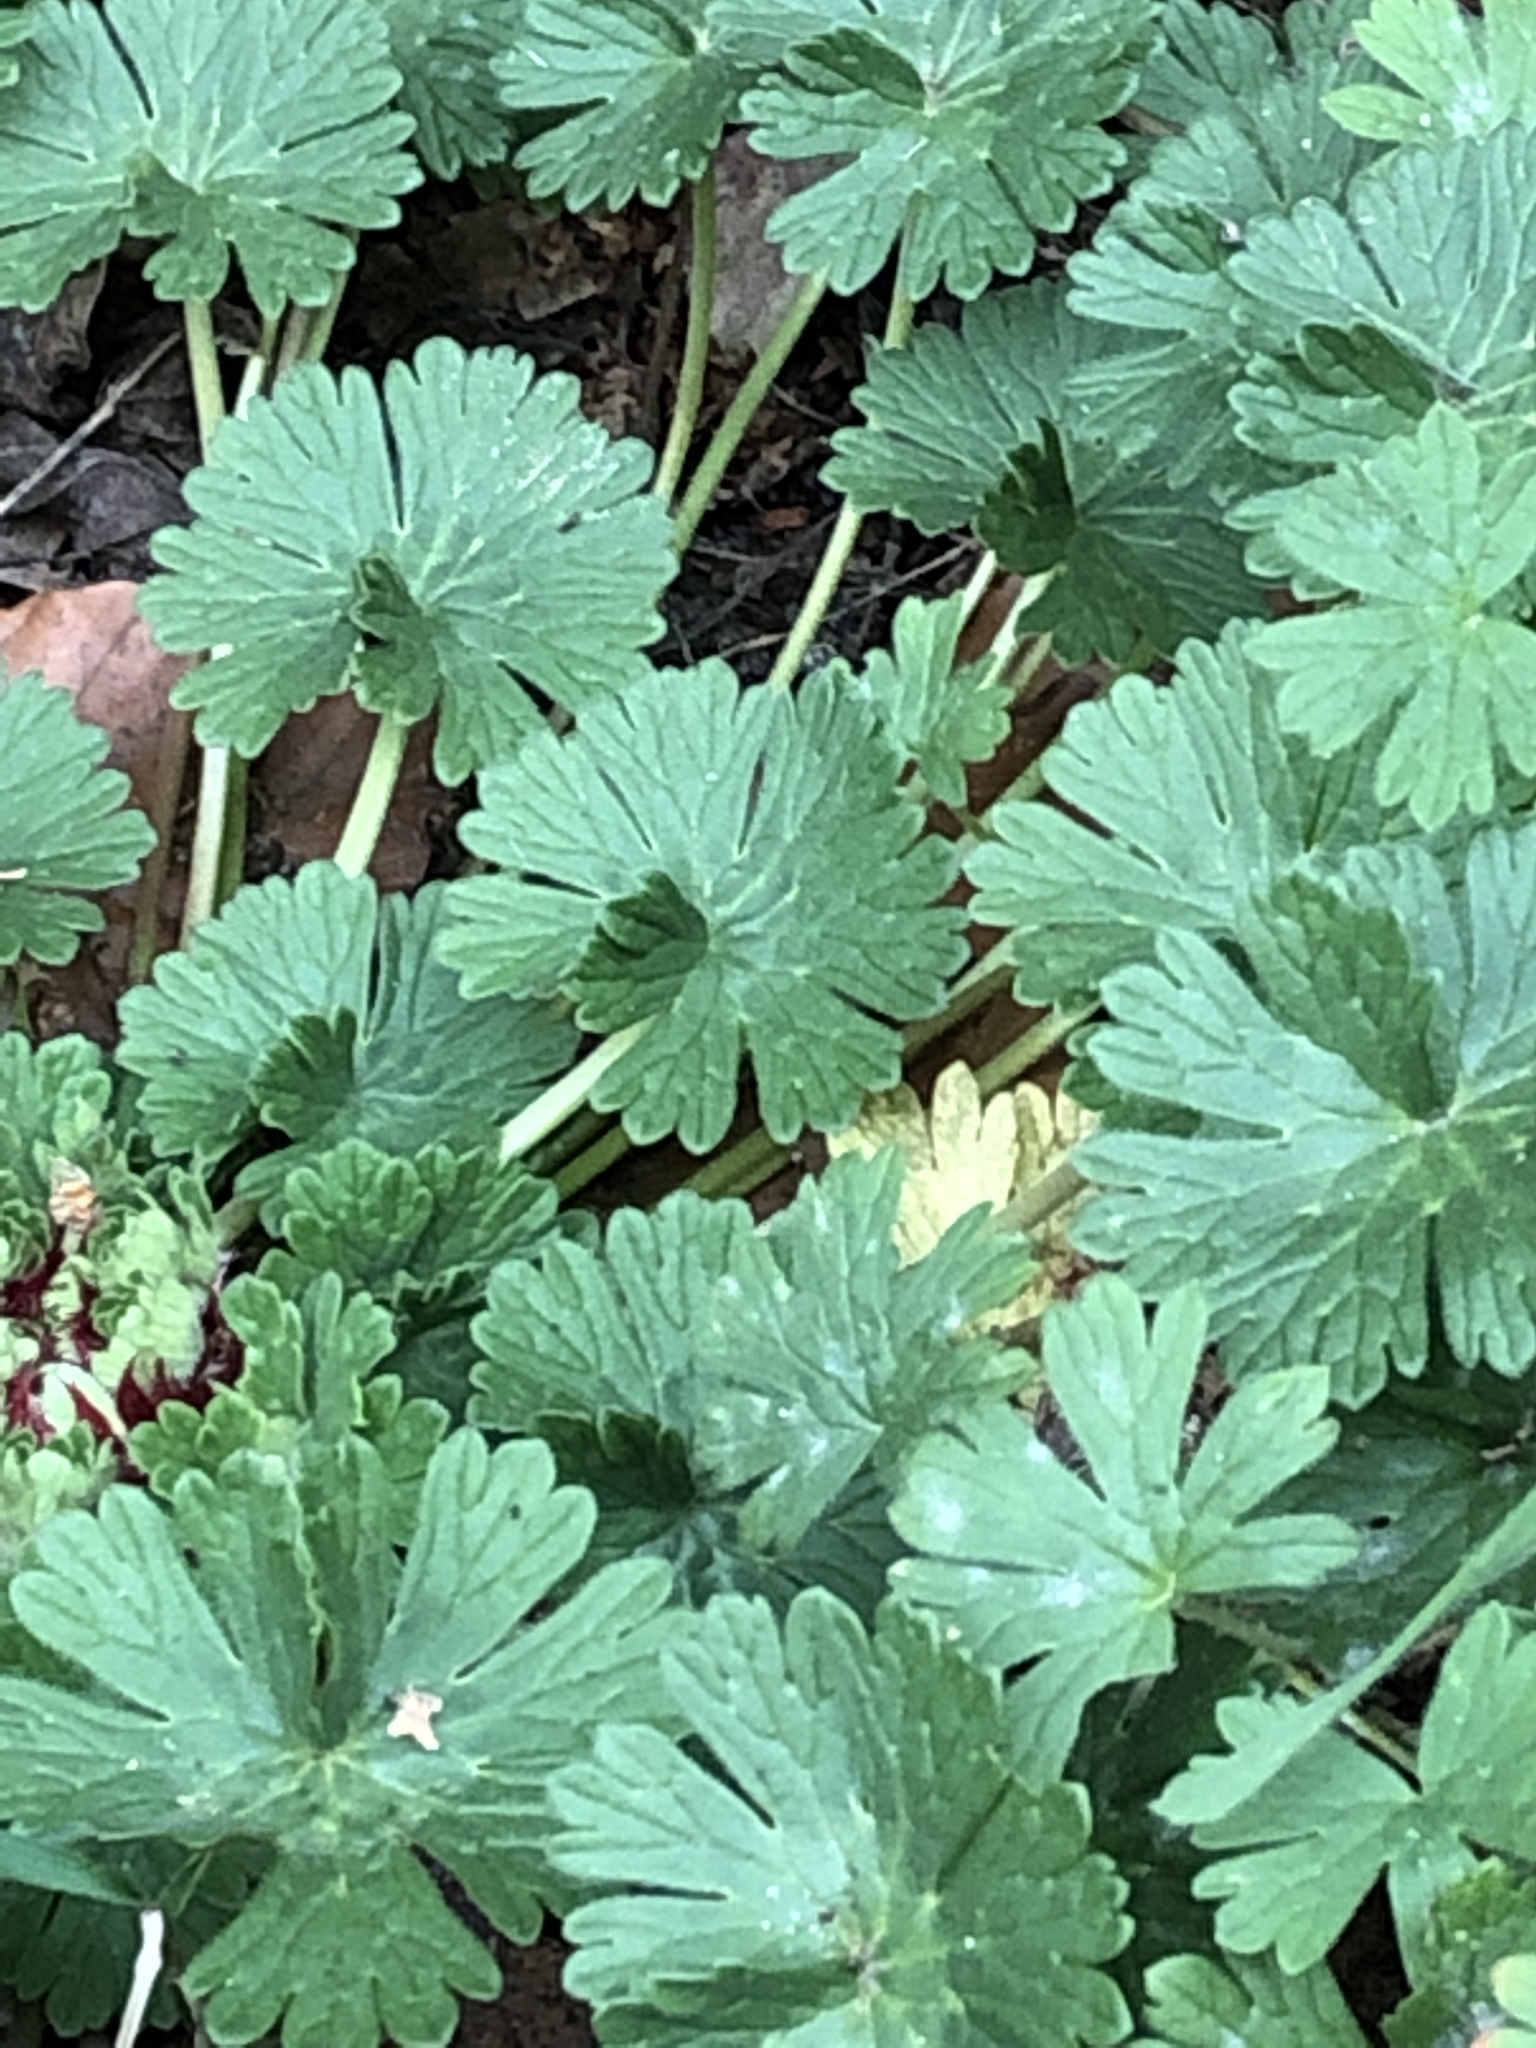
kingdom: Plantae
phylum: Tracheophyta
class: Magnoliopsida
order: Geraniales
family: Geraniaceae
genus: Geranium
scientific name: Geranium molle
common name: Dove's-foot crane's-bill
